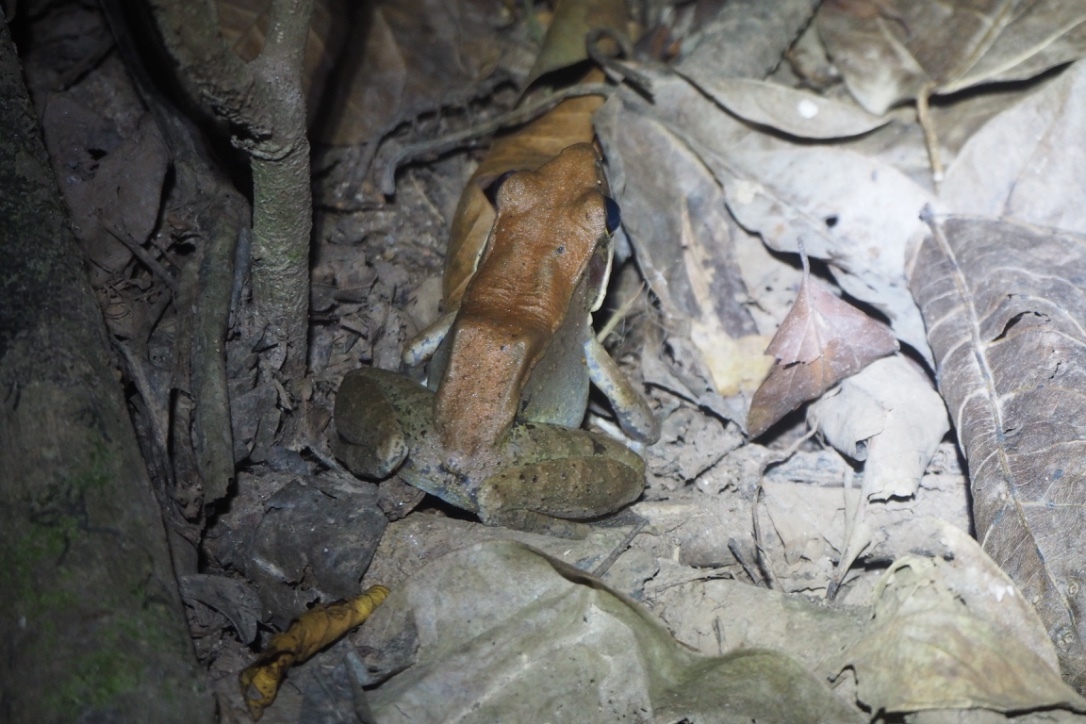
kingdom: Animalia
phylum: Chordata
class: Amphibia
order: Anura
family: Ranidae
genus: Papurana
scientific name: Papurana daemeli
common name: Arhem rana
